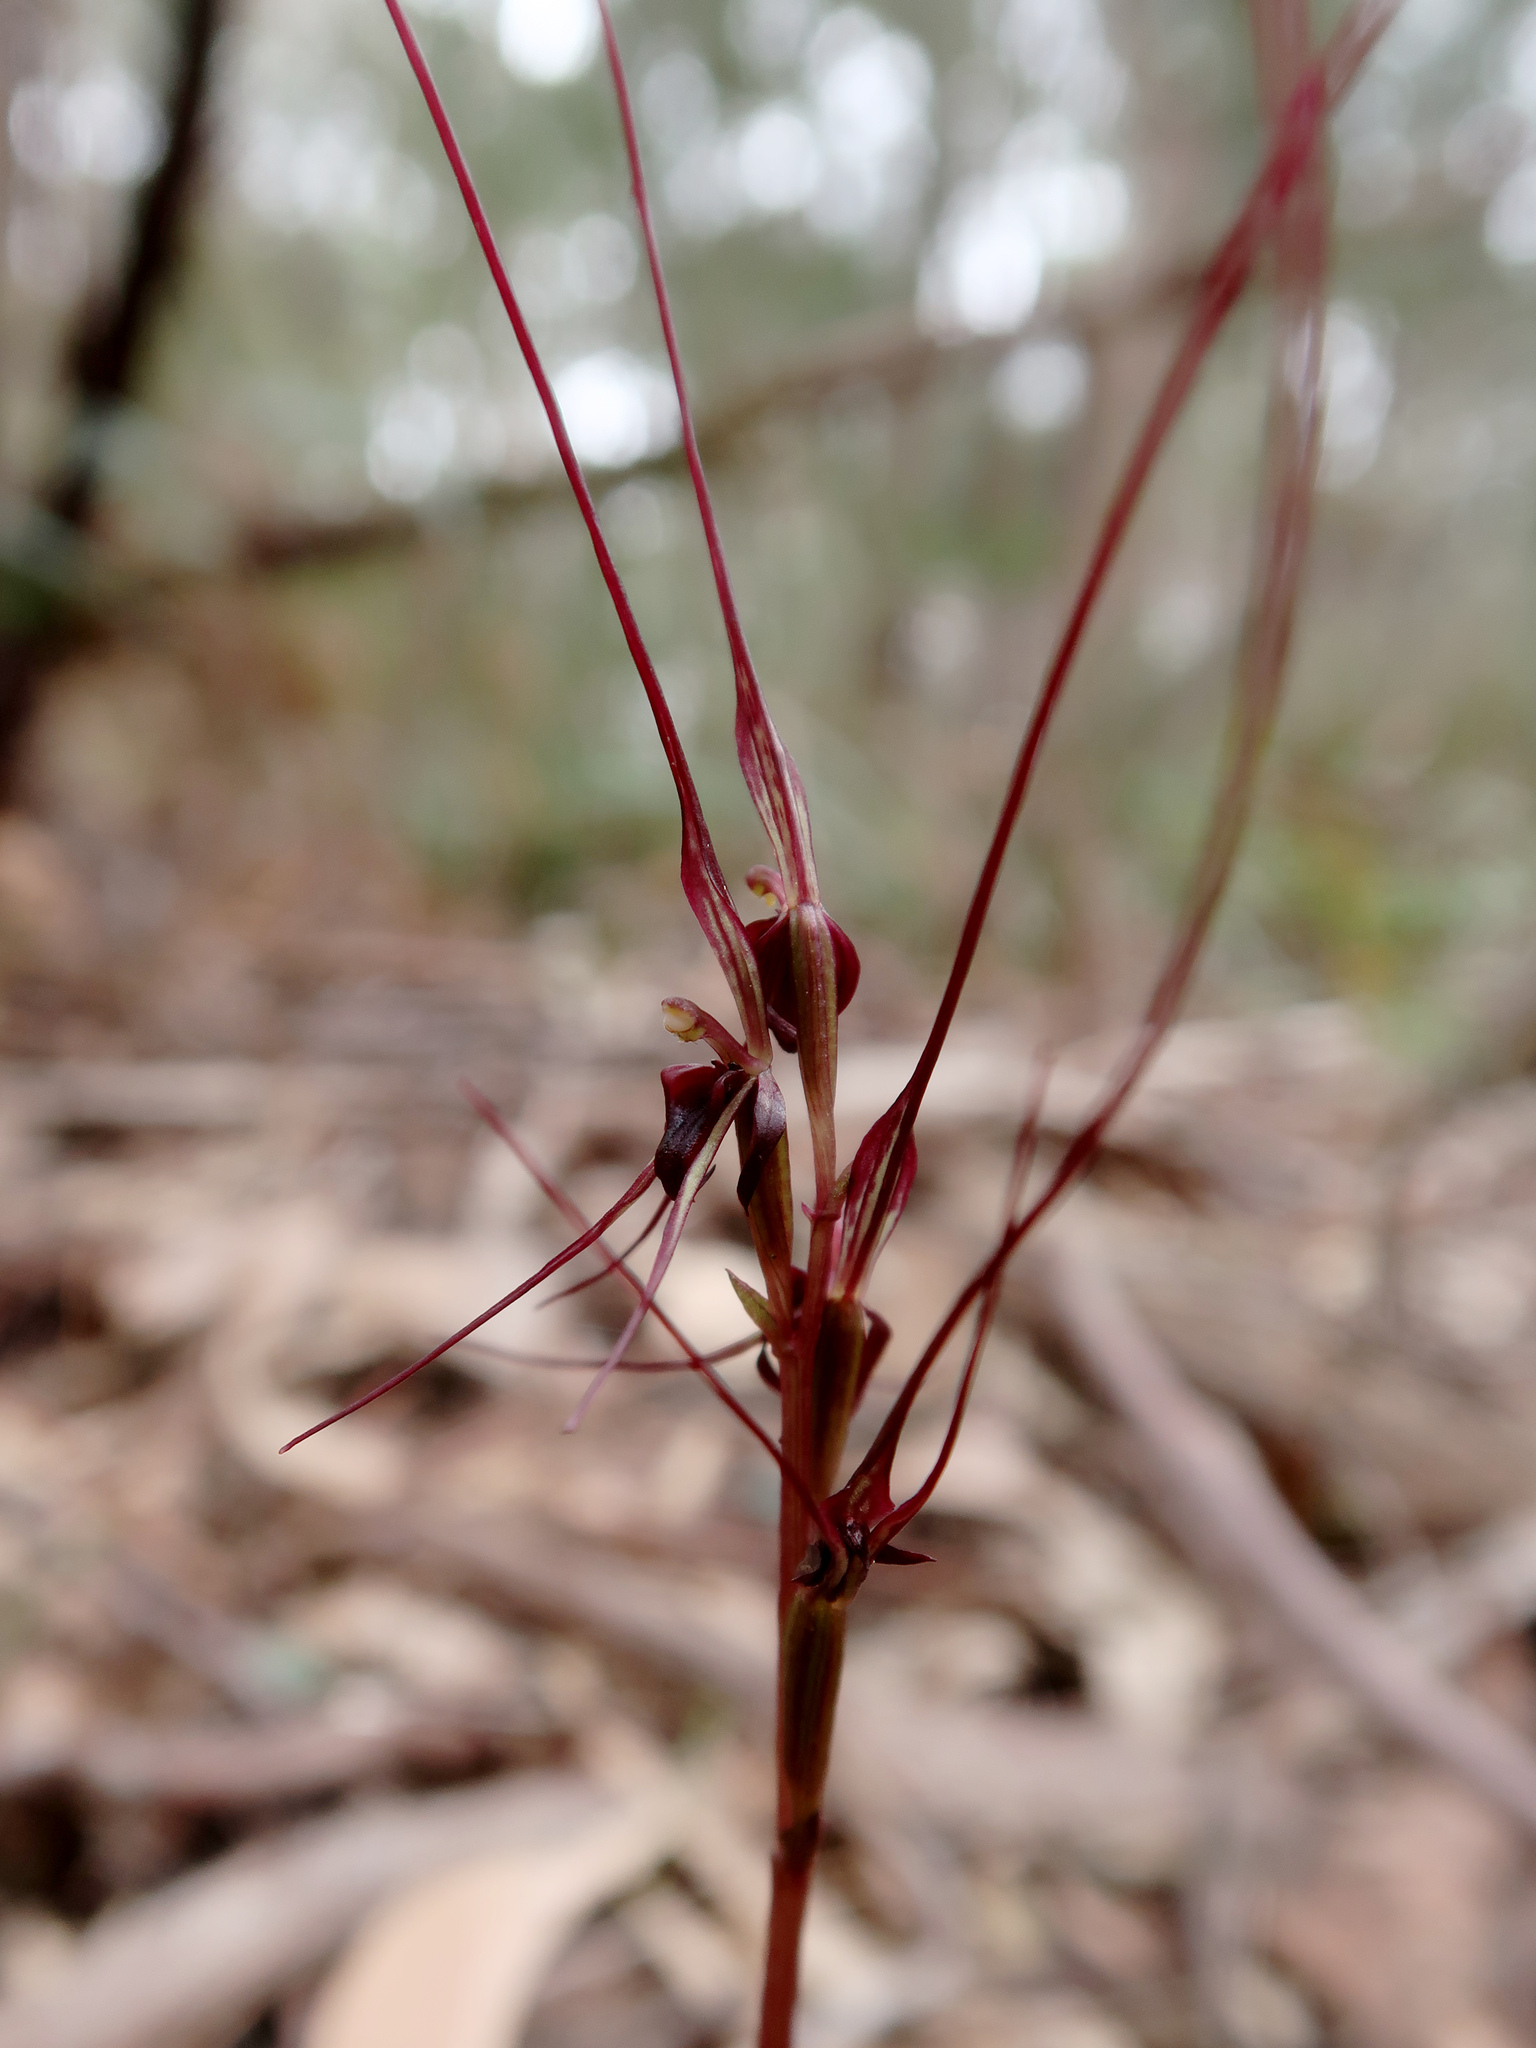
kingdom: Plantae
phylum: Tracheophyta
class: Liliopsida
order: Asparagales
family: Orchidaceae
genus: Acianthus
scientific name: Acianthus caudatus
